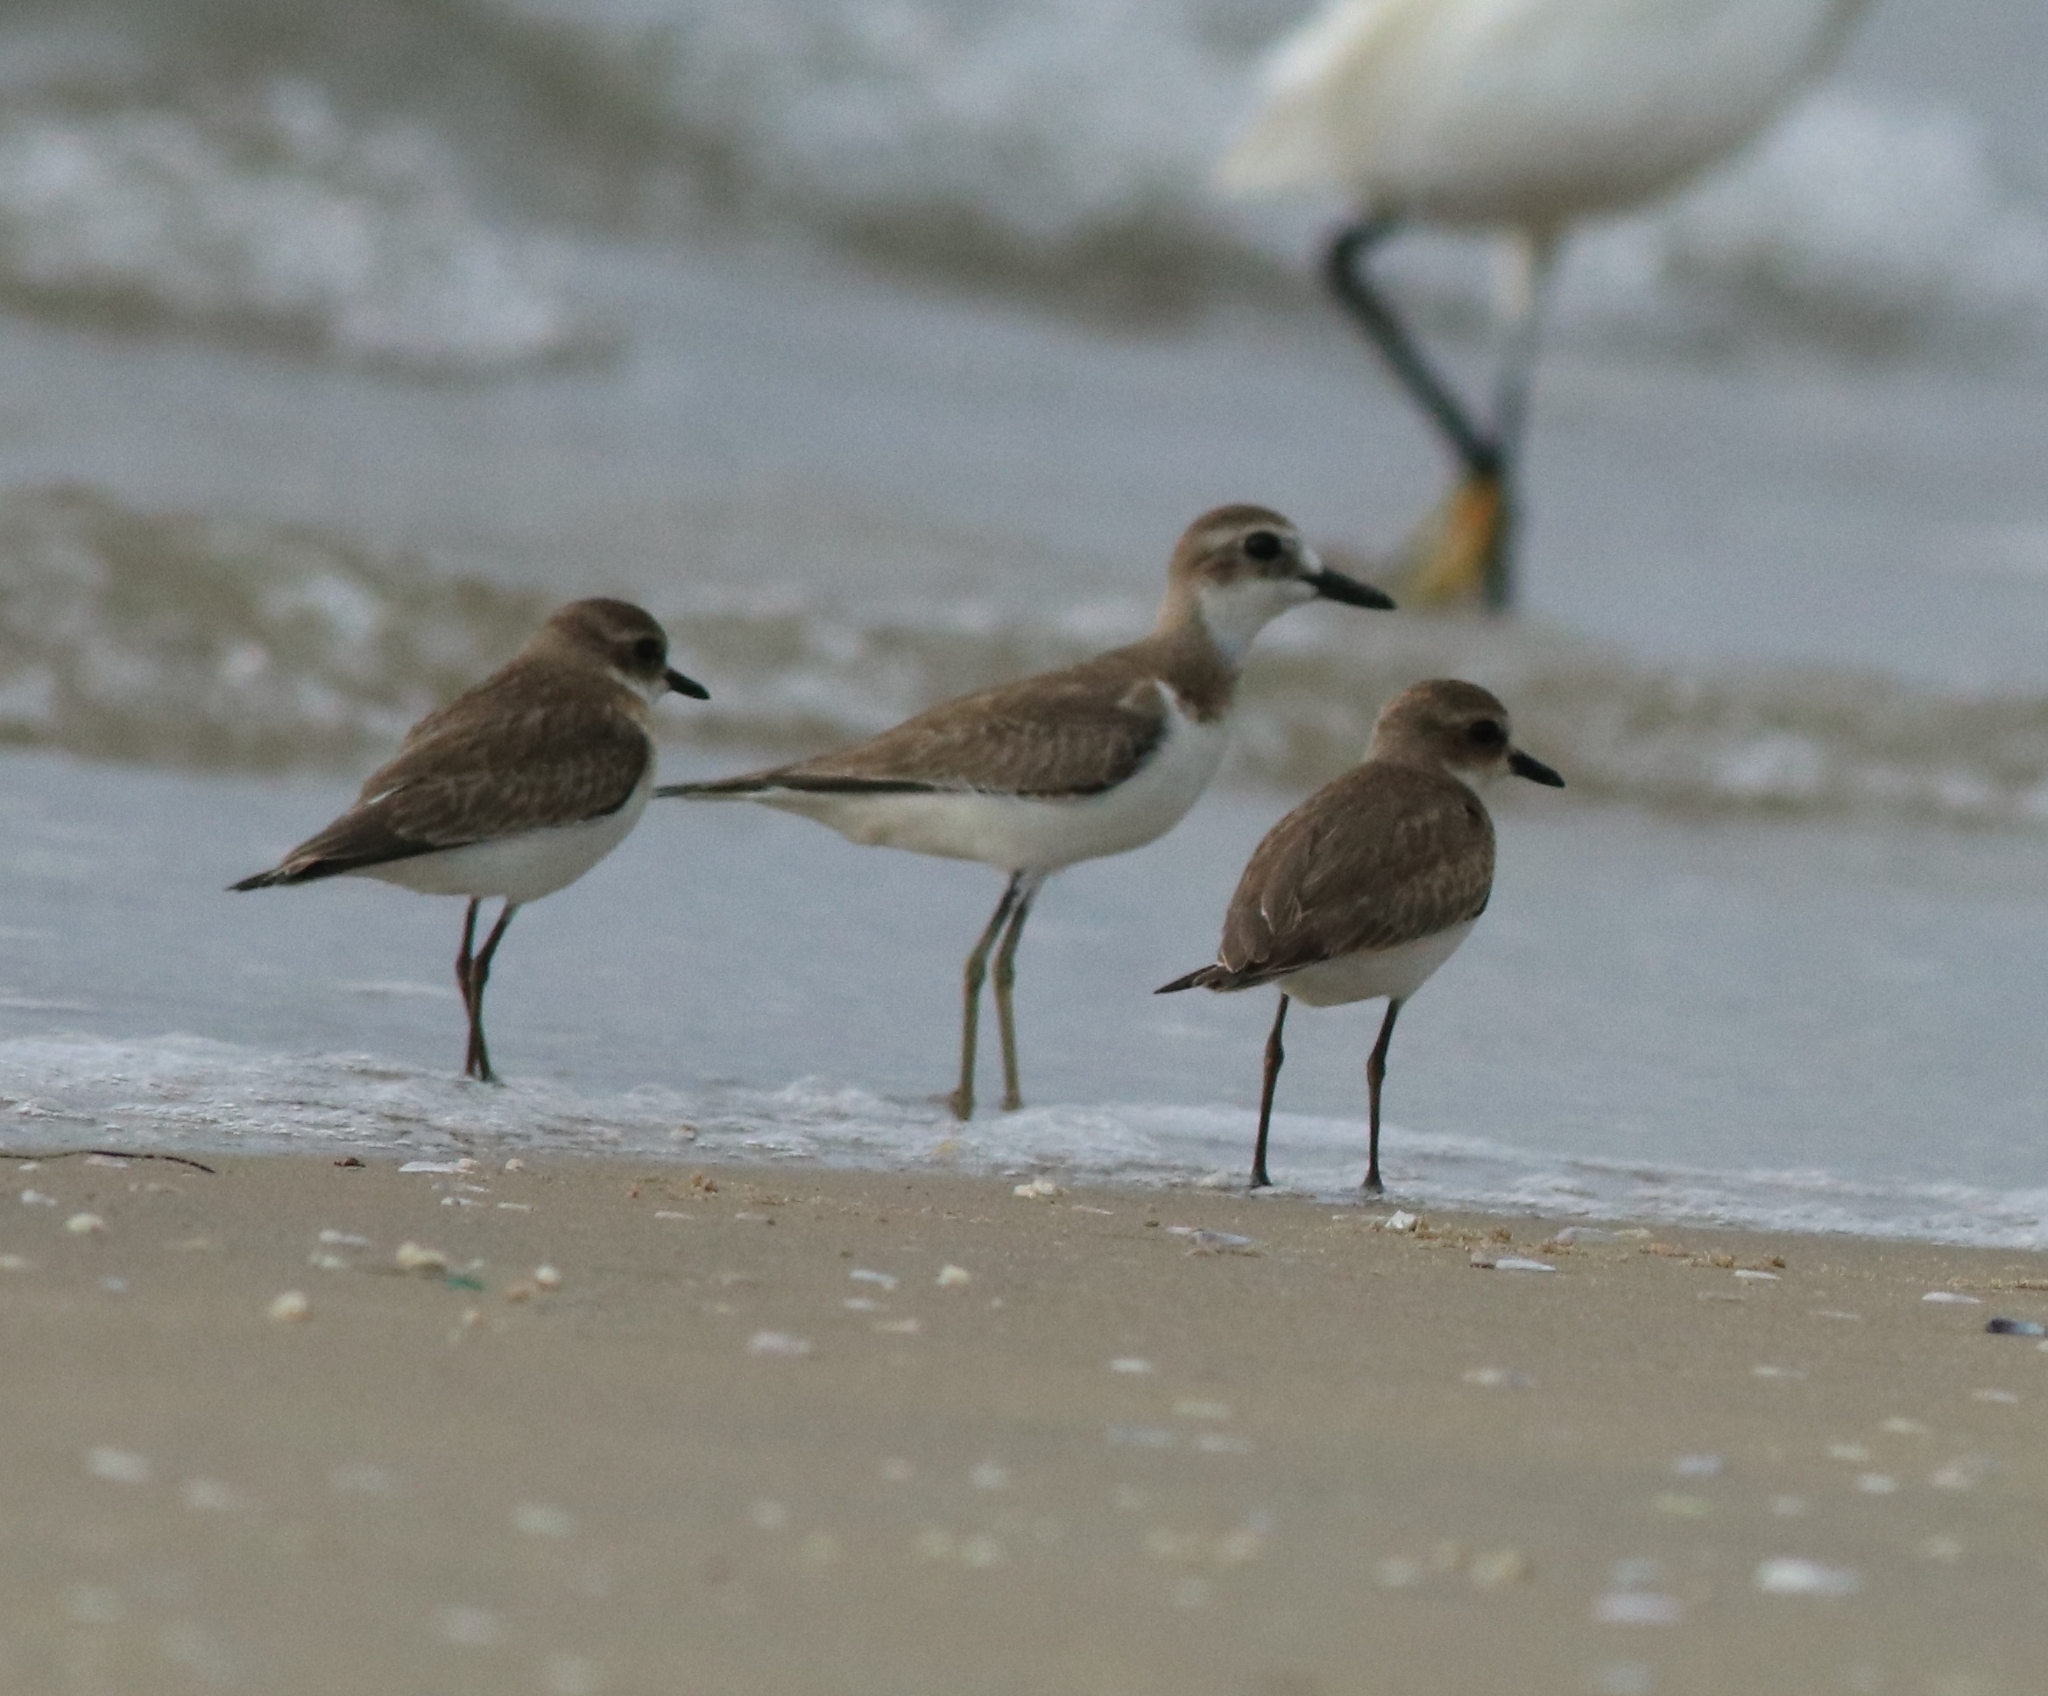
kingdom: Animalia
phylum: Chordata
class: Aves
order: Charadriiformes
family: Charadriidae
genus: Charadrius
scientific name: Charadrius leschenaultii
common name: Greater sand plover
